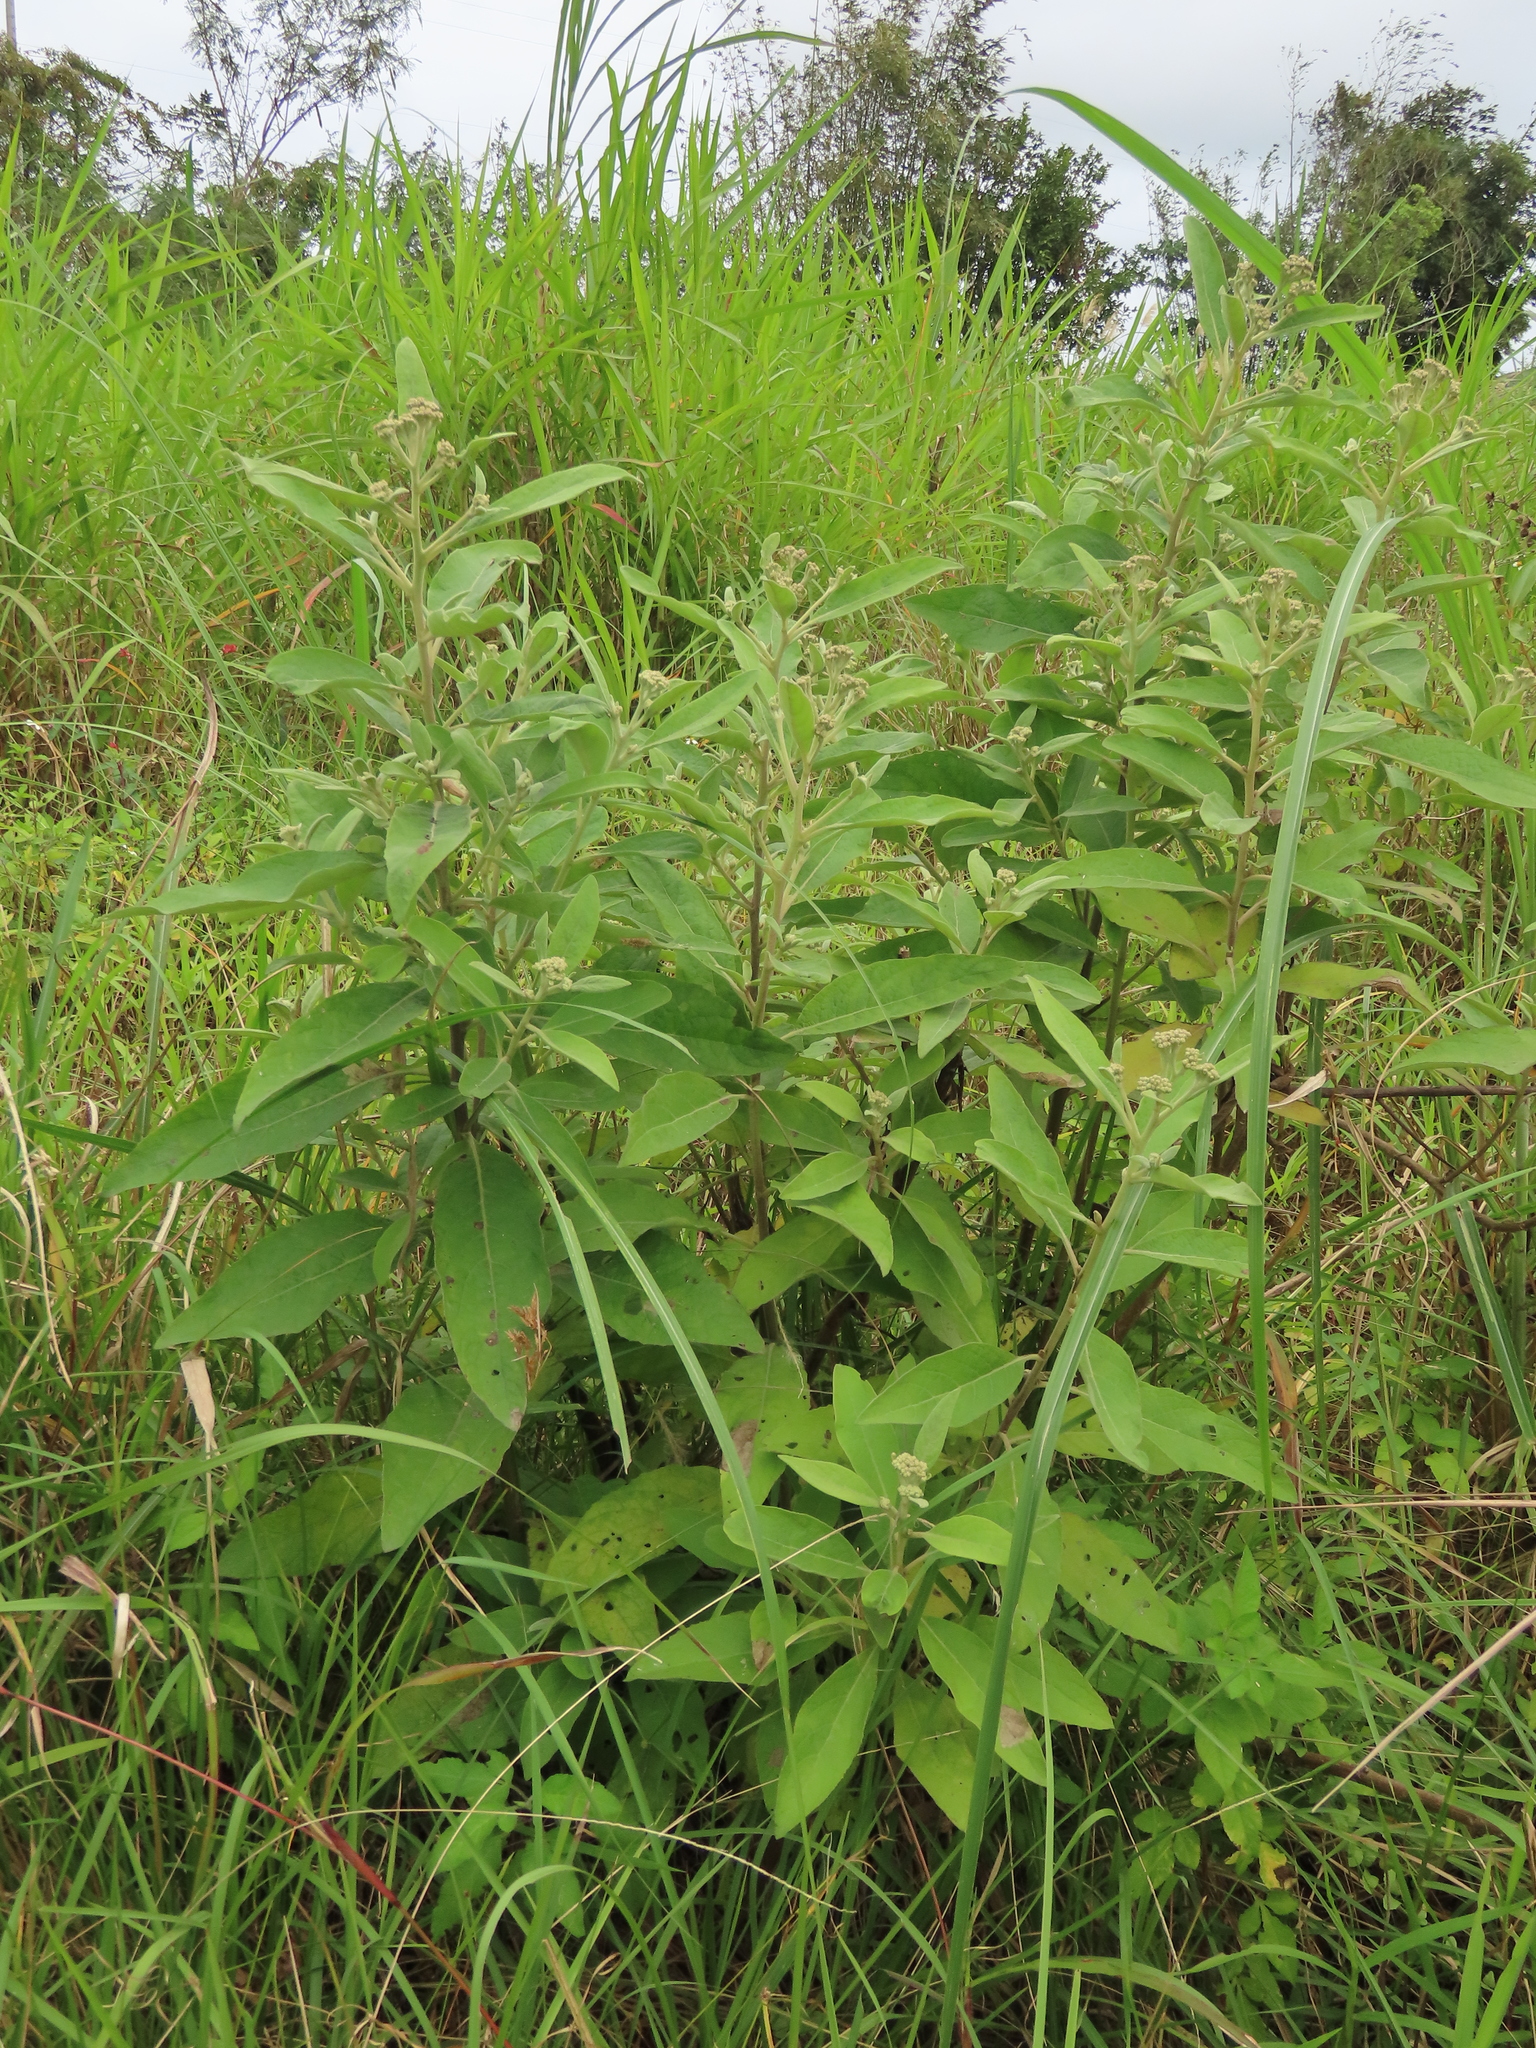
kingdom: Plantae
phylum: Tracheophyta
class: Magnoliopsida
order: Asterales
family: Asteraceae
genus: Pluchea
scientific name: Pluchea carolinensis
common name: Marsh fleabane
